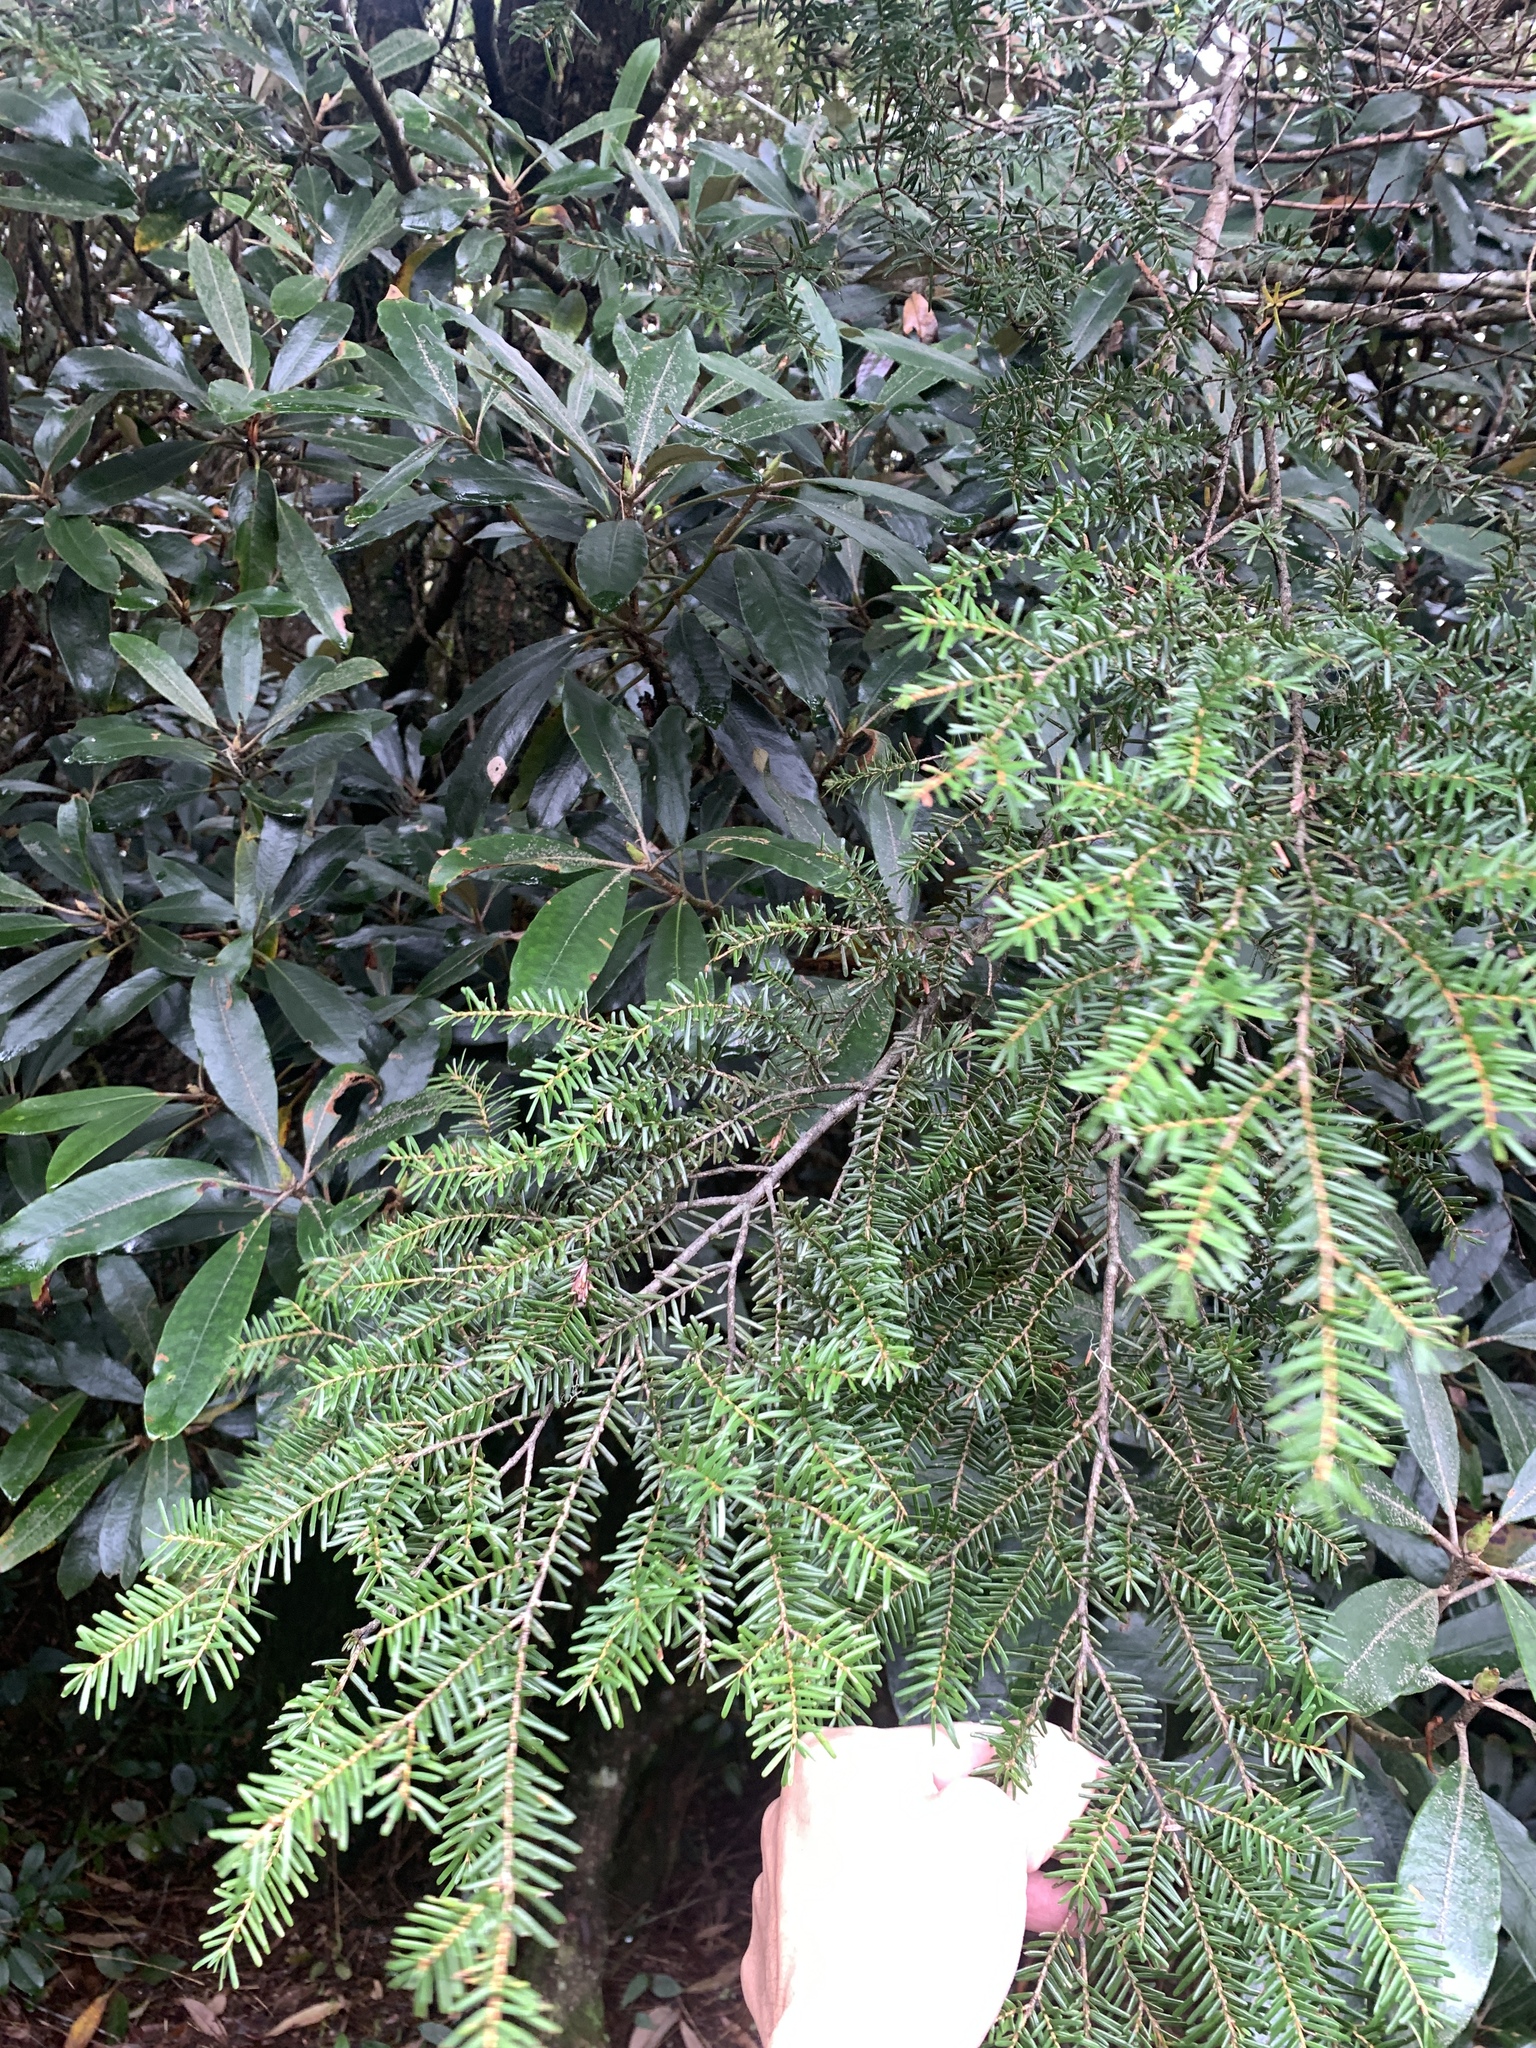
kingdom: Plantae
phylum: Tracheophyta
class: Pinopsida
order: Pinales
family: Pinaceae
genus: Tsuga
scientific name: Tsuga chinensis
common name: Chinese hemlock
